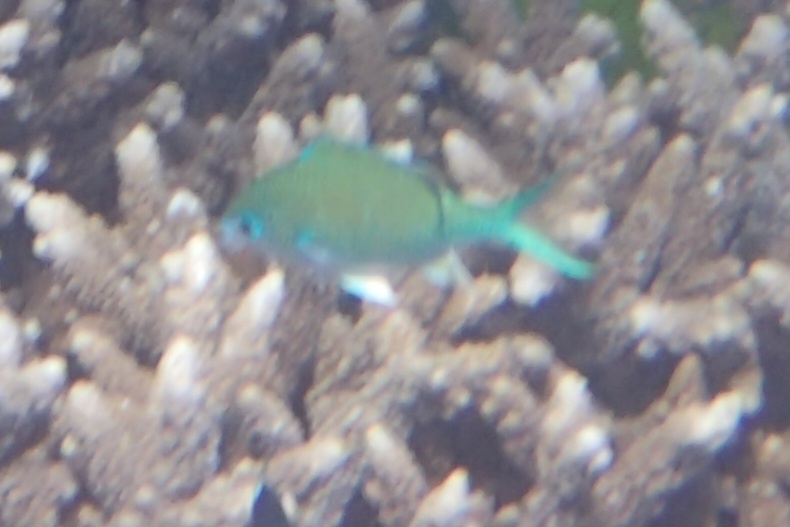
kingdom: Animalia
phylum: Chordata
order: Perciformes
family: Pomacentridae
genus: Chromis
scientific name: Chromis atripectoralis
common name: Black-axil chromis
